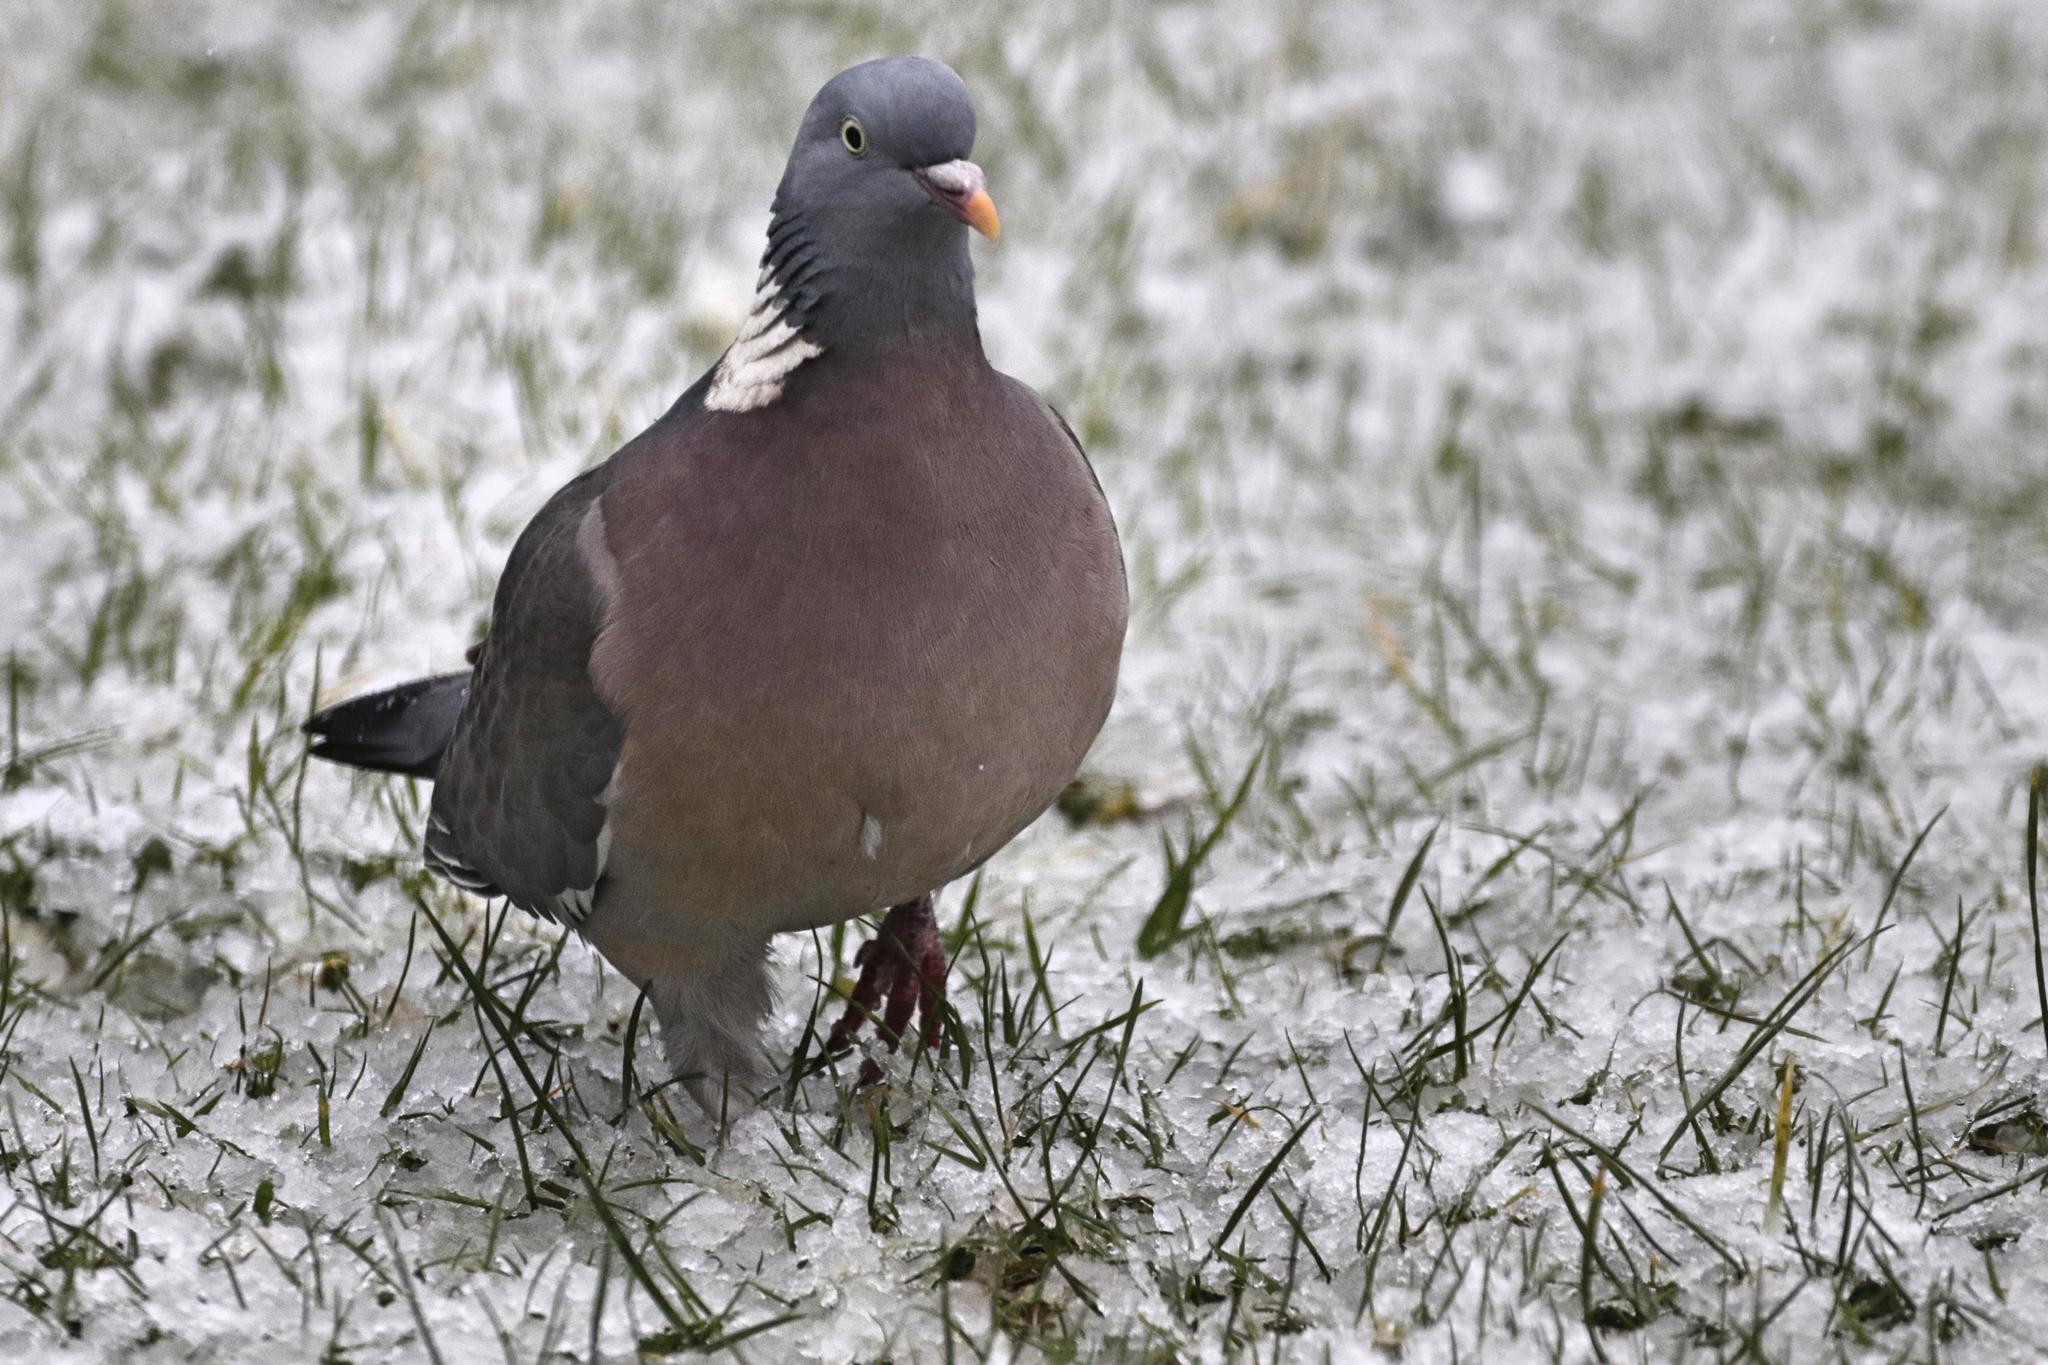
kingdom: Animalia
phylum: Chordata
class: Aves
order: Columbiformes
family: Columbidae
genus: Columba
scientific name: Columba palumbus
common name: Common wood pigeon
